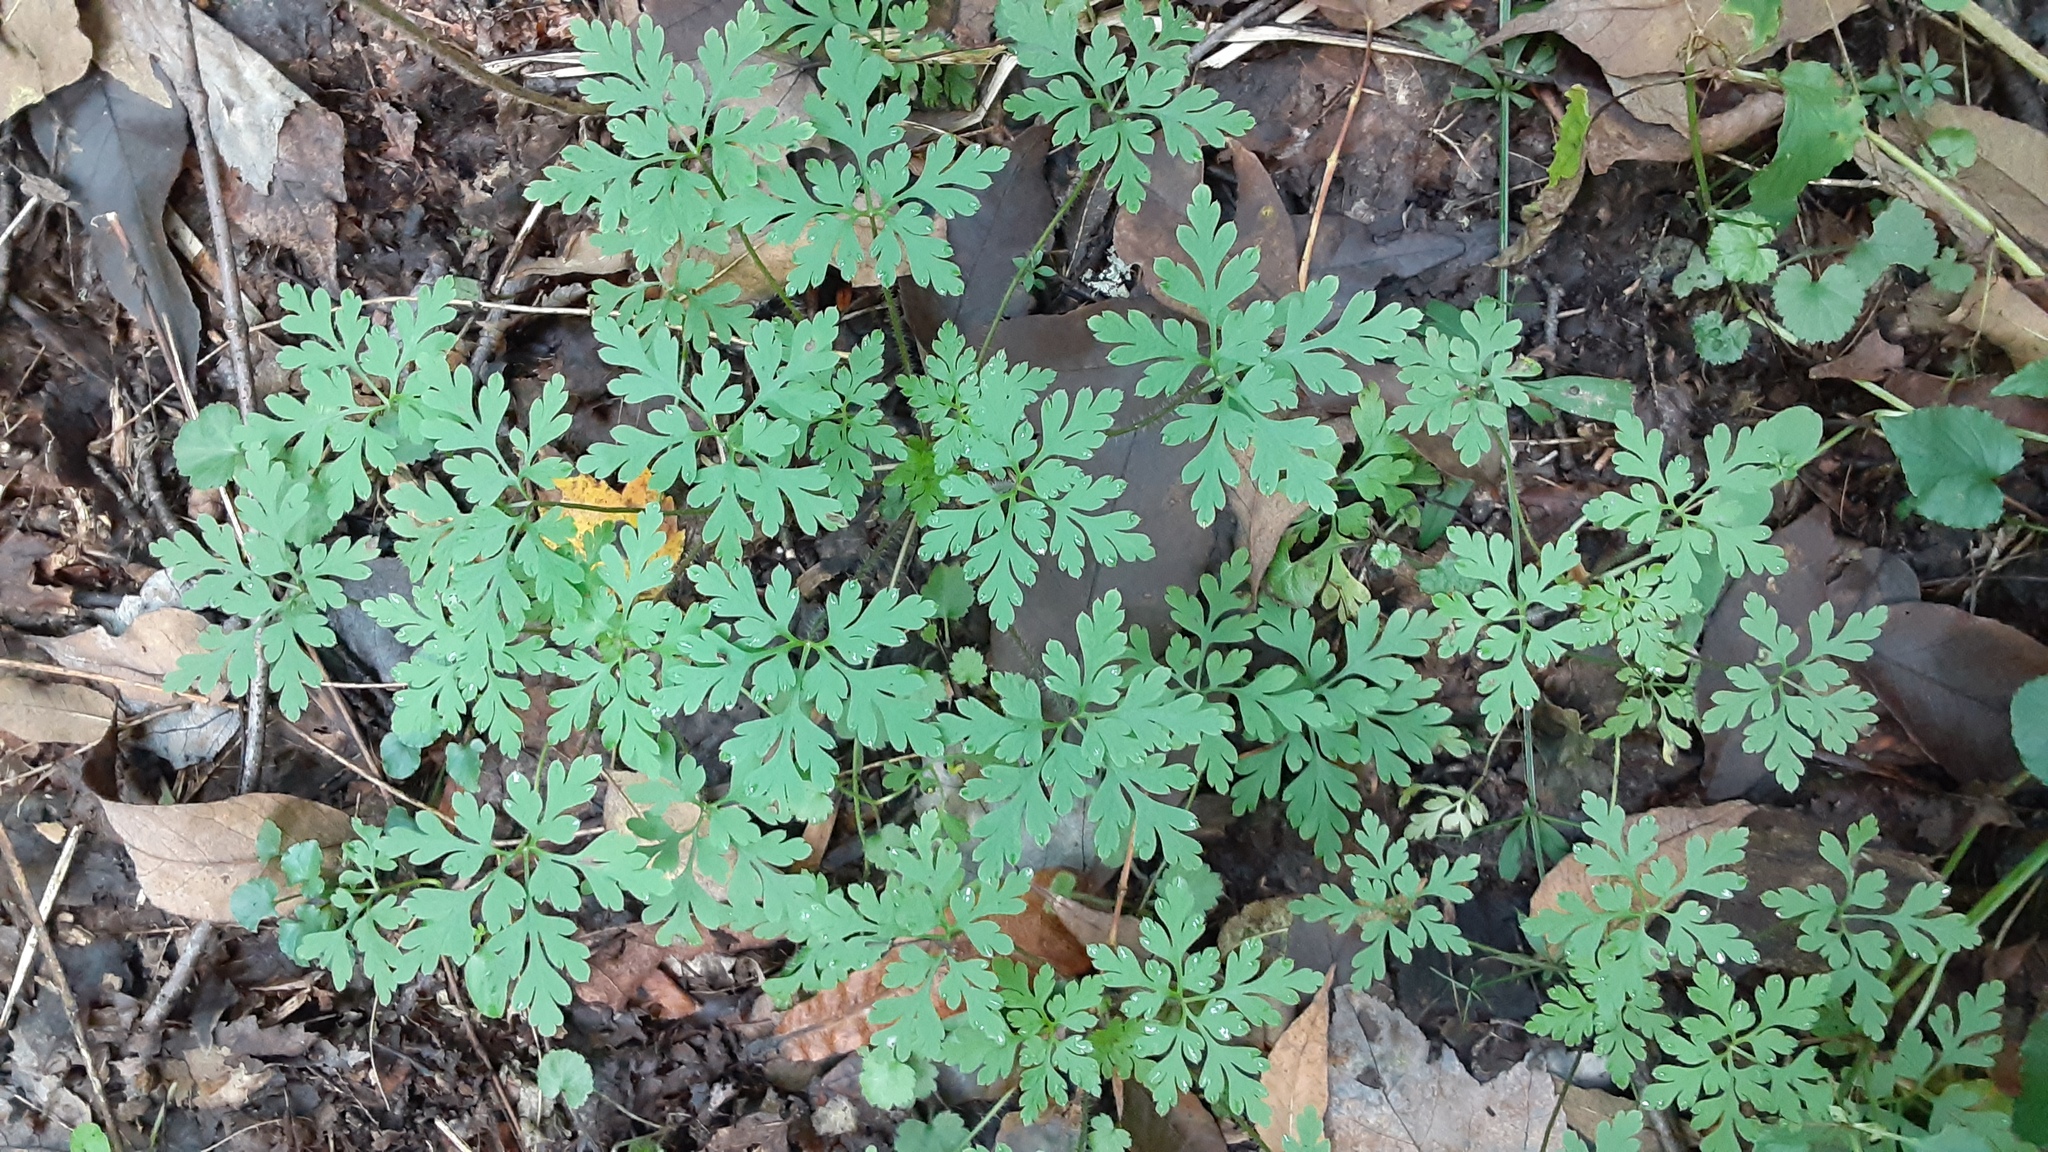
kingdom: Plantae
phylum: Tracheophyta
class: Magnoliopsida
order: Geraniales
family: Geraniaceae
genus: Geranium
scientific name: Geranium robertianum
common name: Herb-robert
